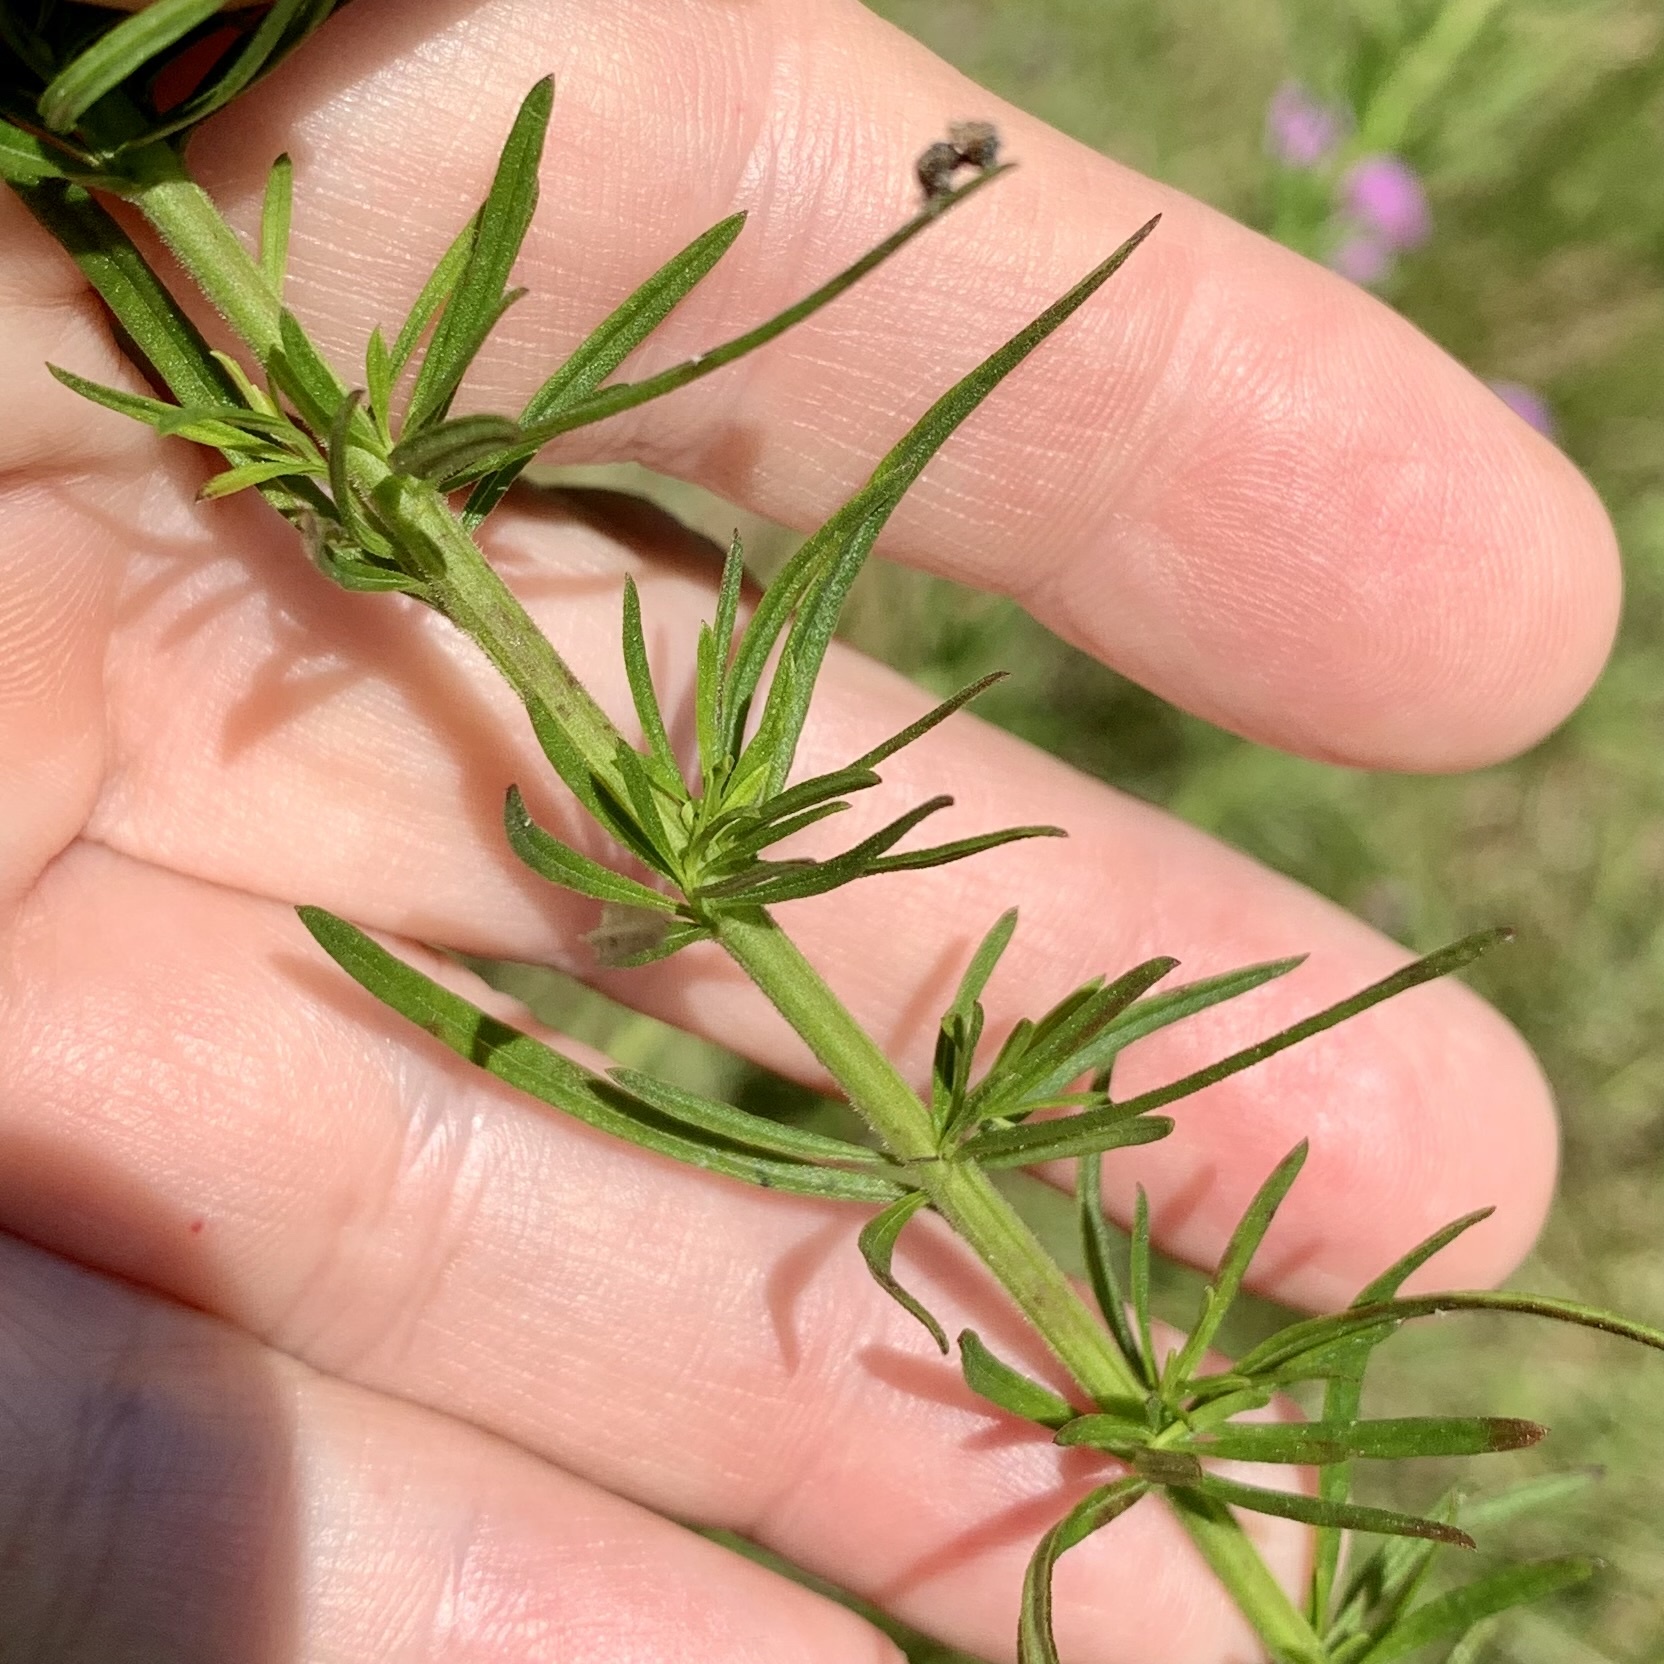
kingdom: Plantae
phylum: Tracheophyta
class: Magnoliopsida
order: Lamiales
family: Orobanchaceae
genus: Agalinis
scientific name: Agalinis fasciculata
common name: Beach false foxglove
